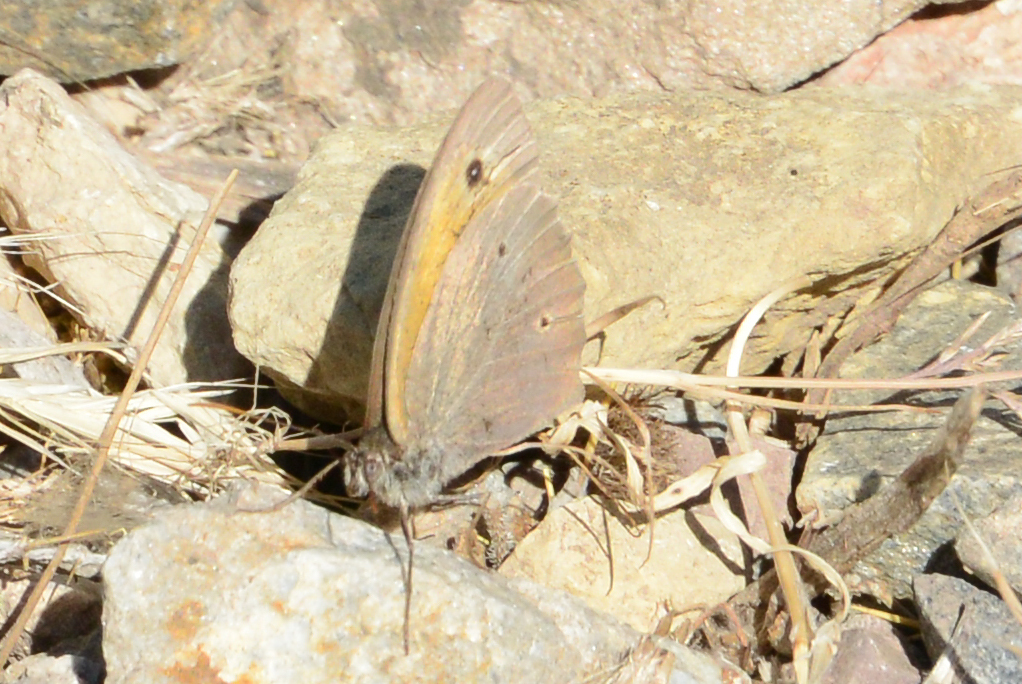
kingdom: Animalia
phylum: Arthropoda
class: Insecta
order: Lepidoptera
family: Nymphalidae
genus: Maniola
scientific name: Maniola jurtina
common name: Meadow brown
